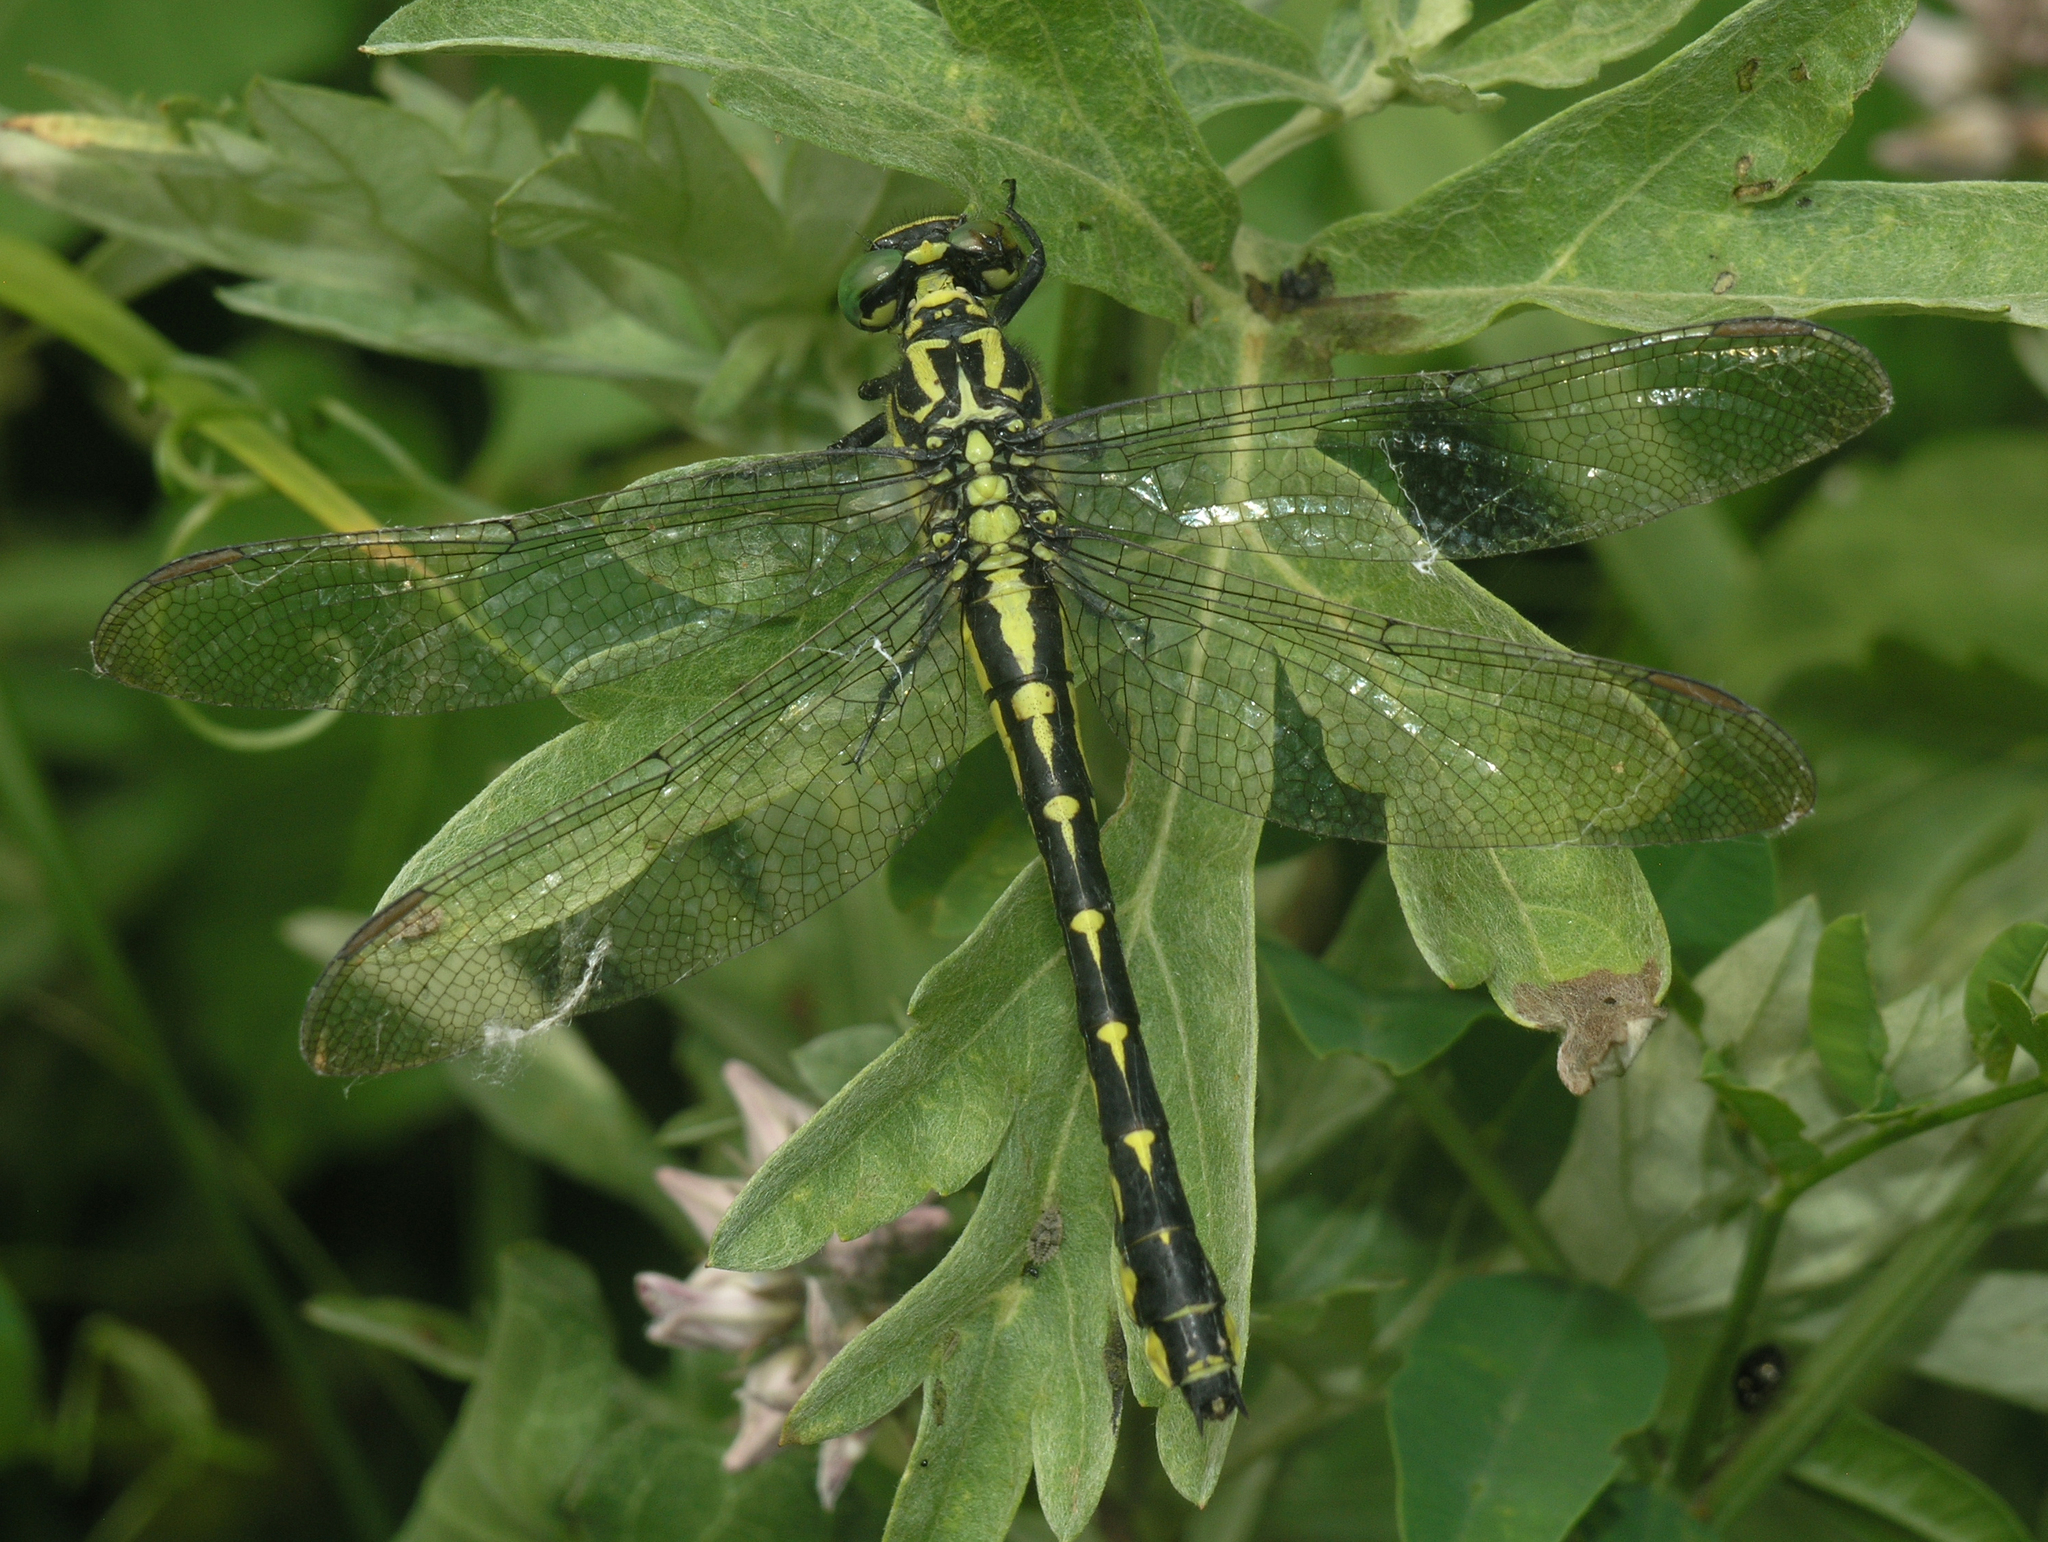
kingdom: Animalia
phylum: Arthropoda
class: Insecta
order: Odonata
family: Gomphidae
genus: Shaogomphus
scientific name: Shaogomphus schmidti
